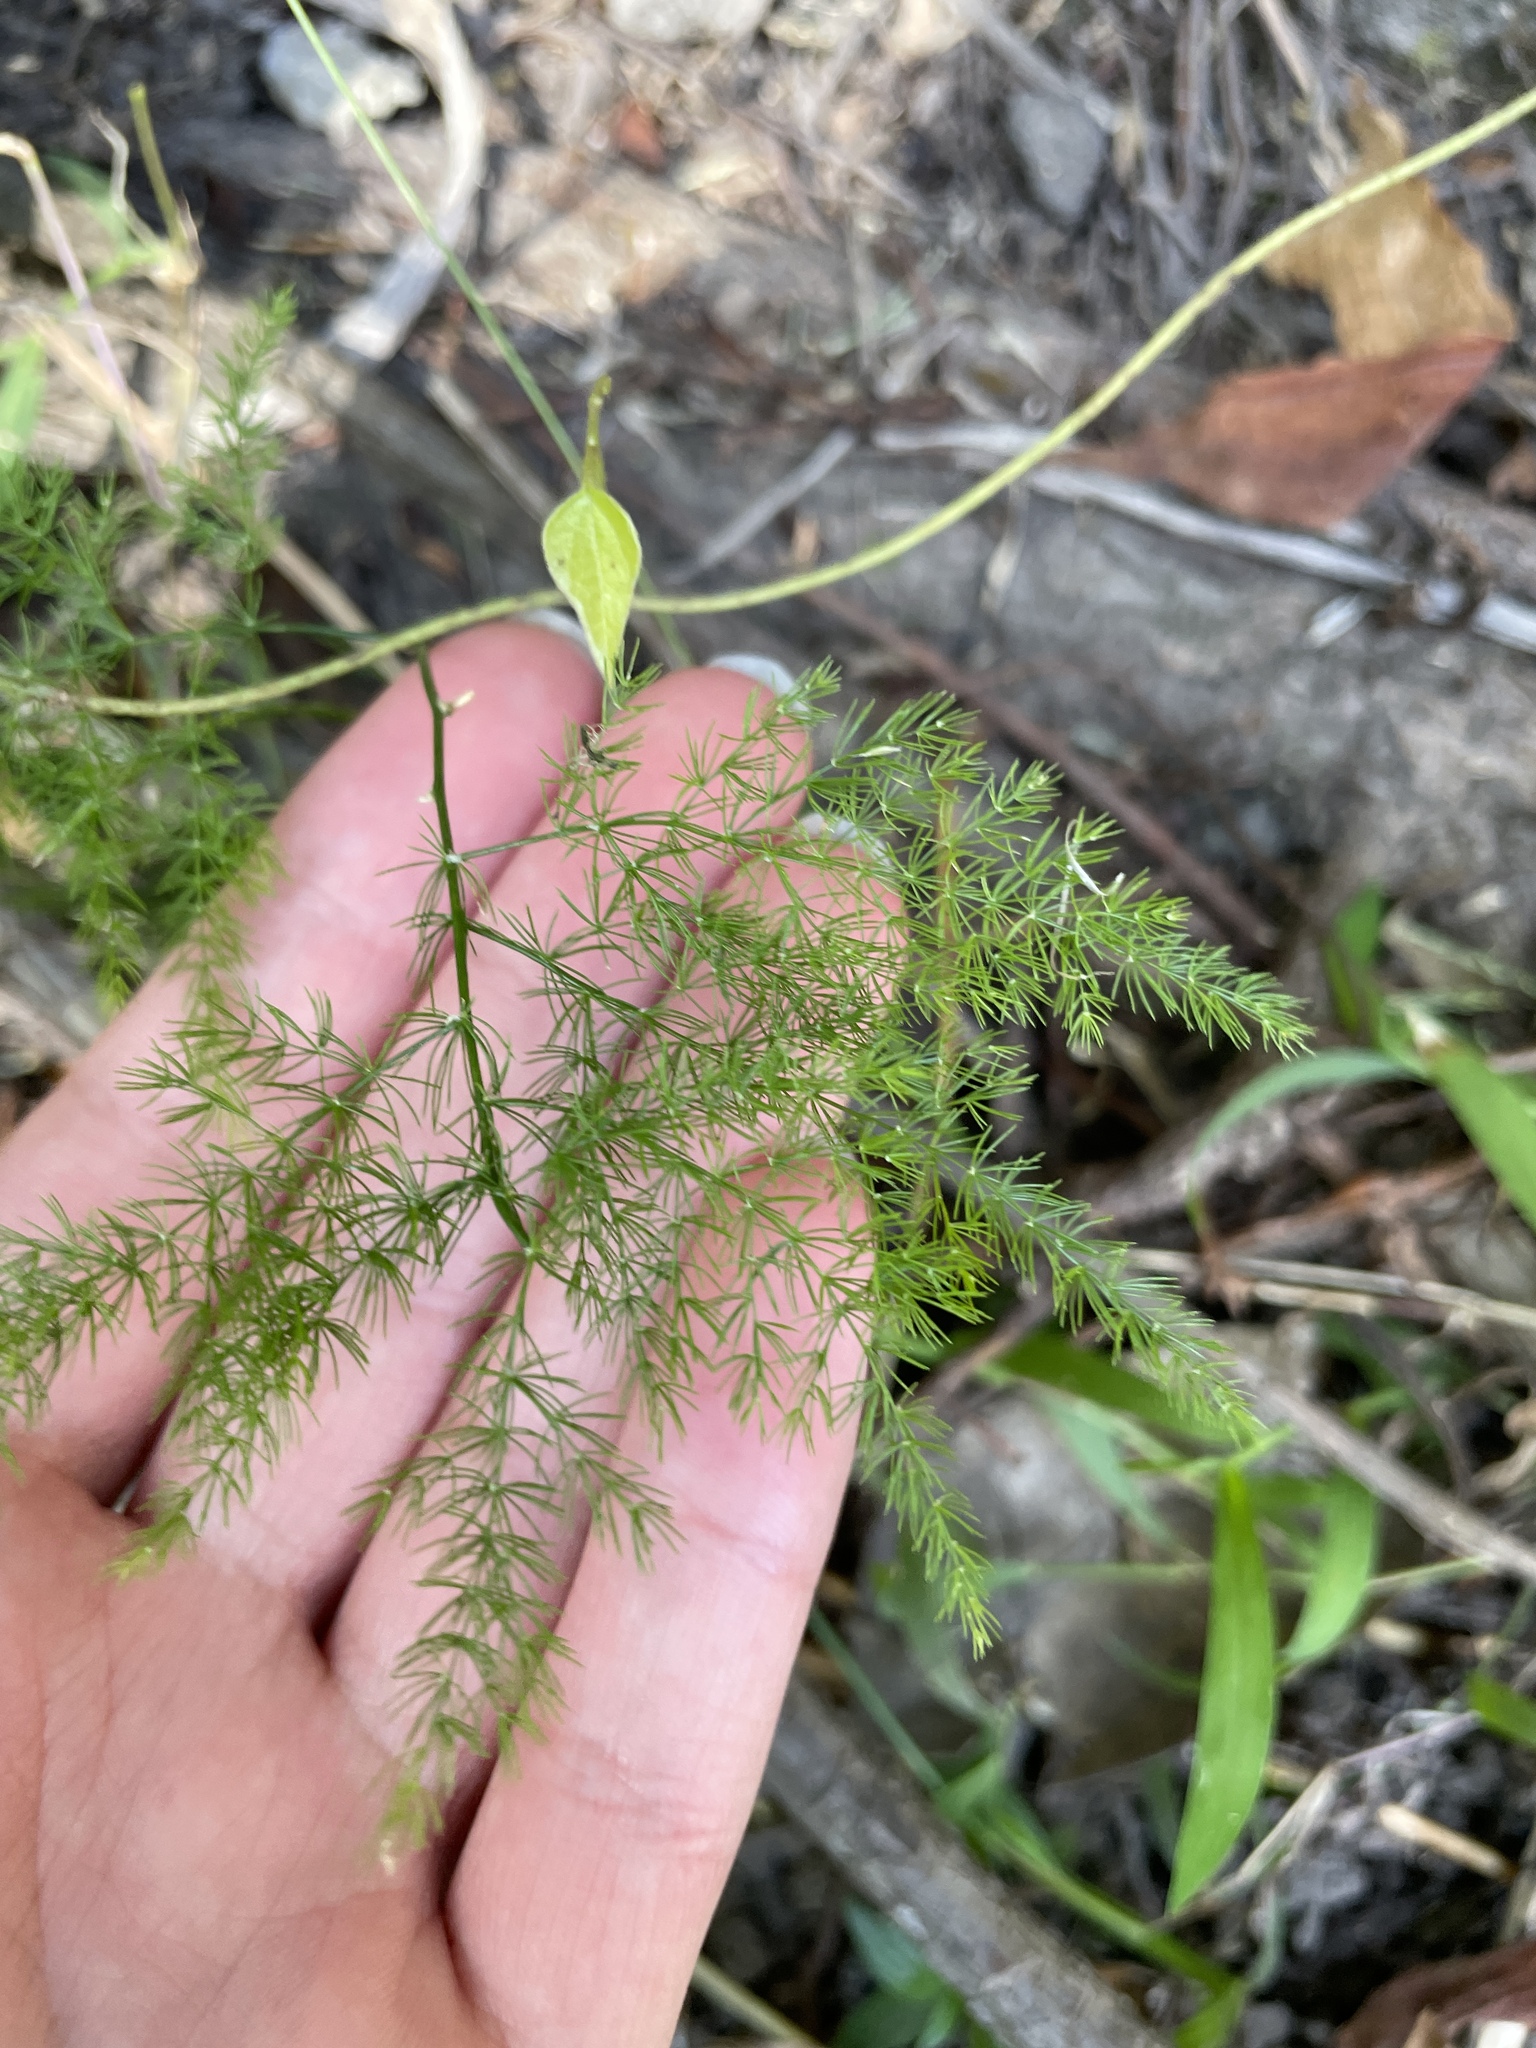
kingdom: Plantae
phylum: Tracheophyta
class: Liliopsida
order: Asparagales
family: Asparagaceae
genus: Asparagus
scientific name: Asparagus setaceus
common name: Common asparagus fern
